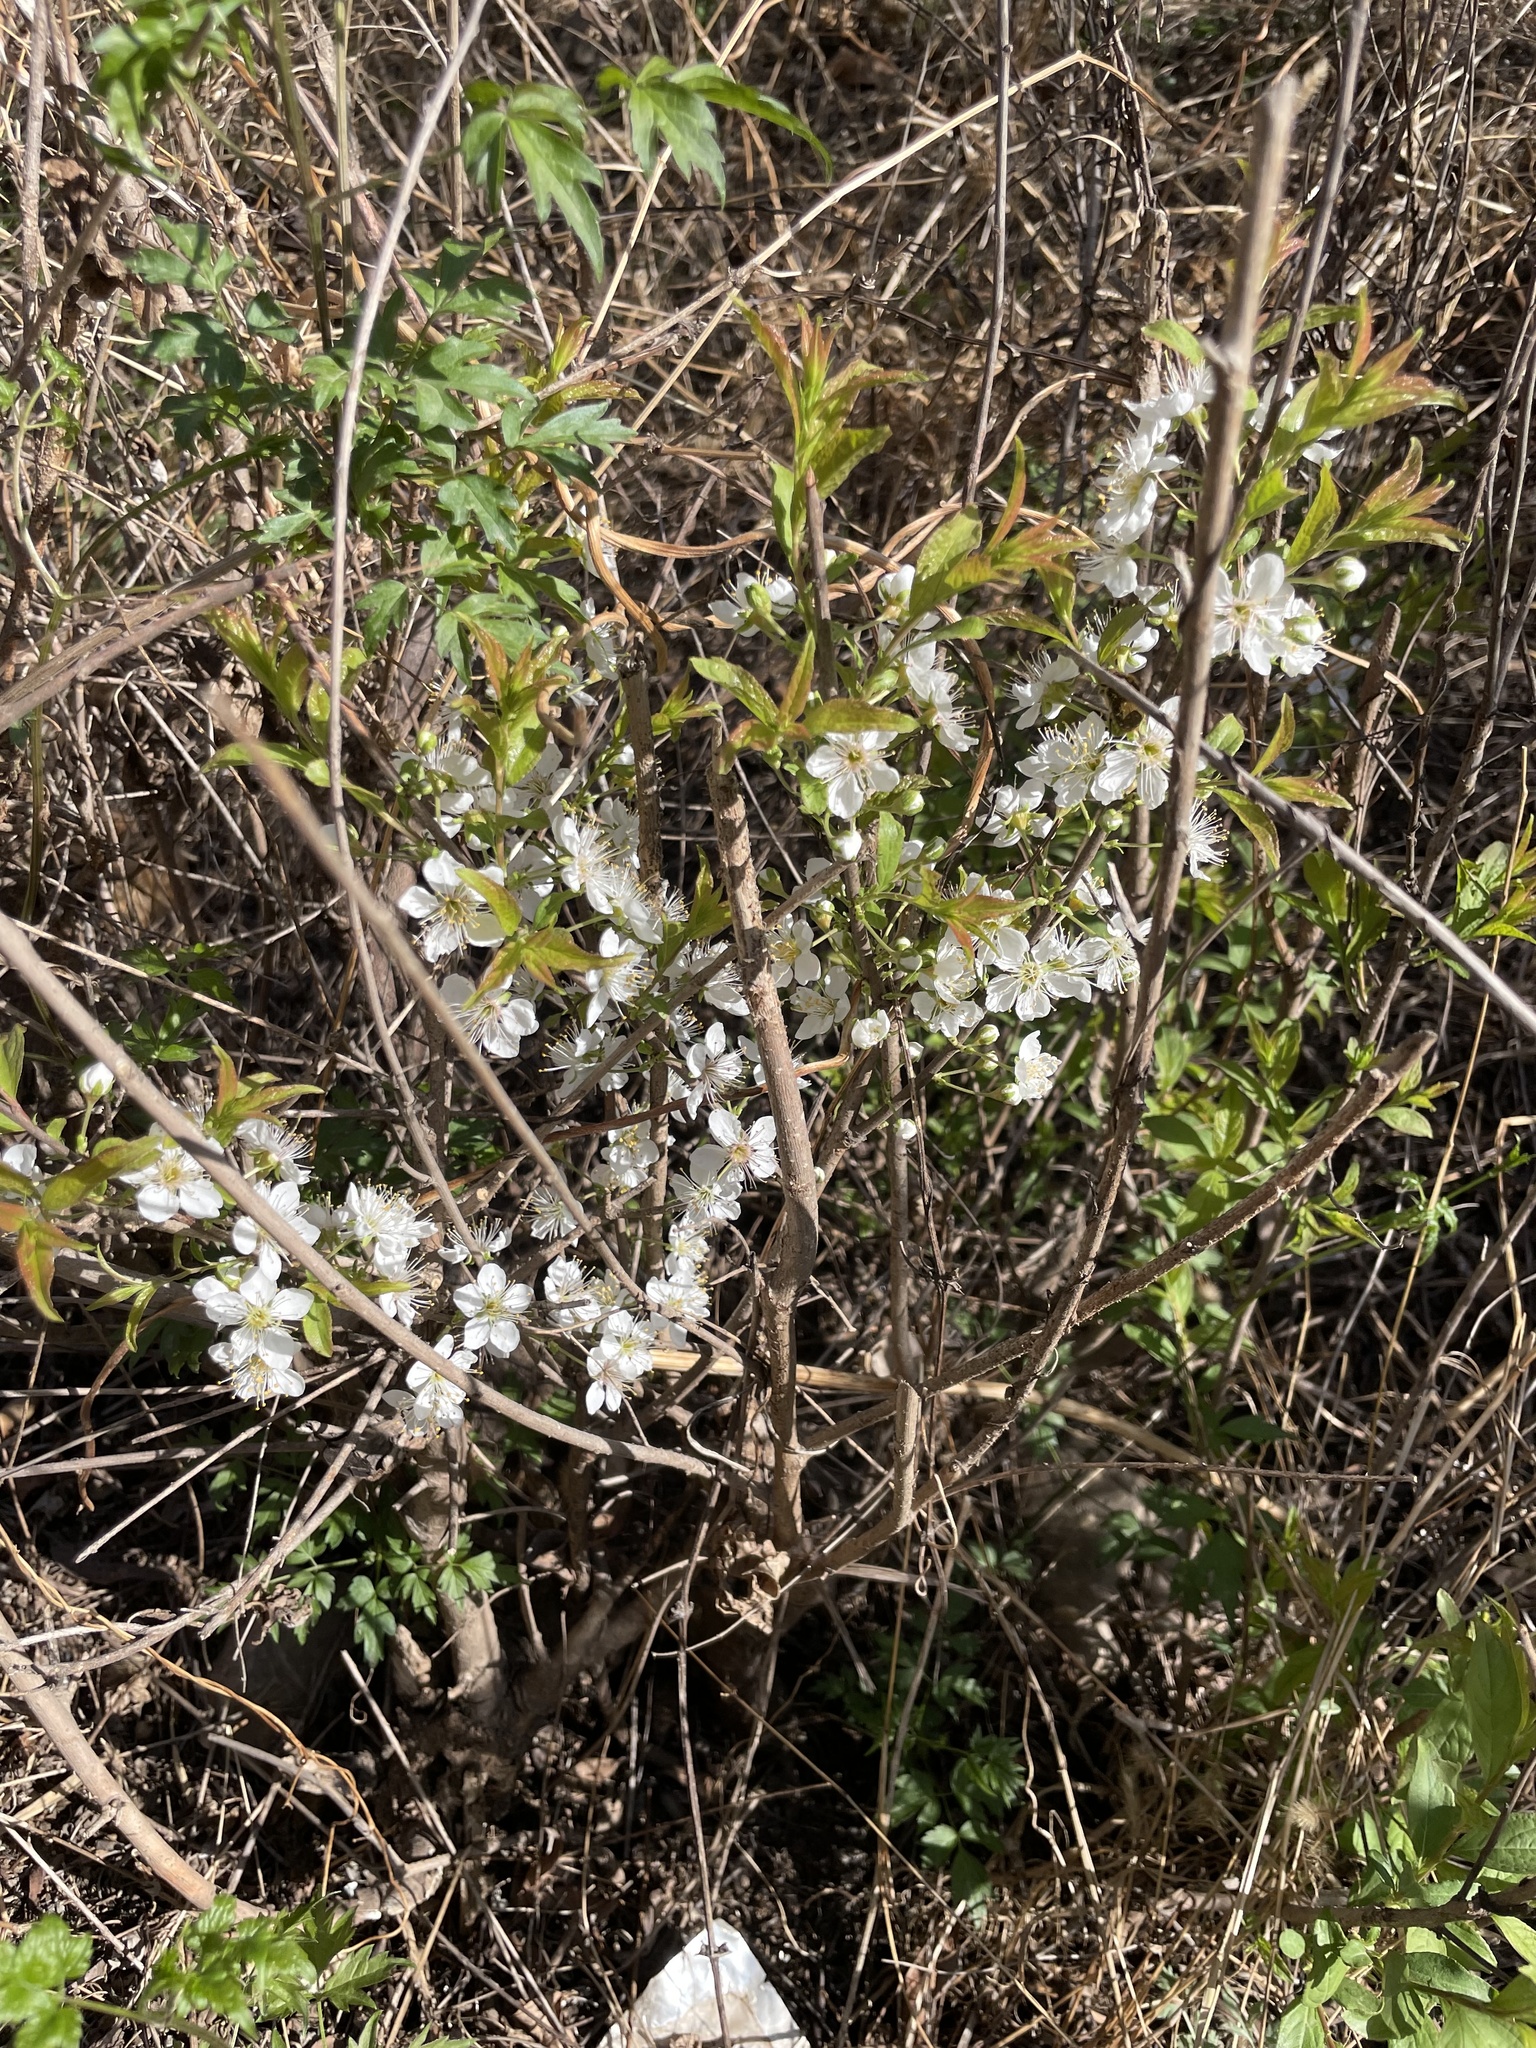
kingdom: Plantae
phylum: Tracheophyta
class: Magnoliopsida
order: Rosales
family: Rosaceae
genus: Prunus
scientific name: Prunus humilis
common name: Humble bush cherry
